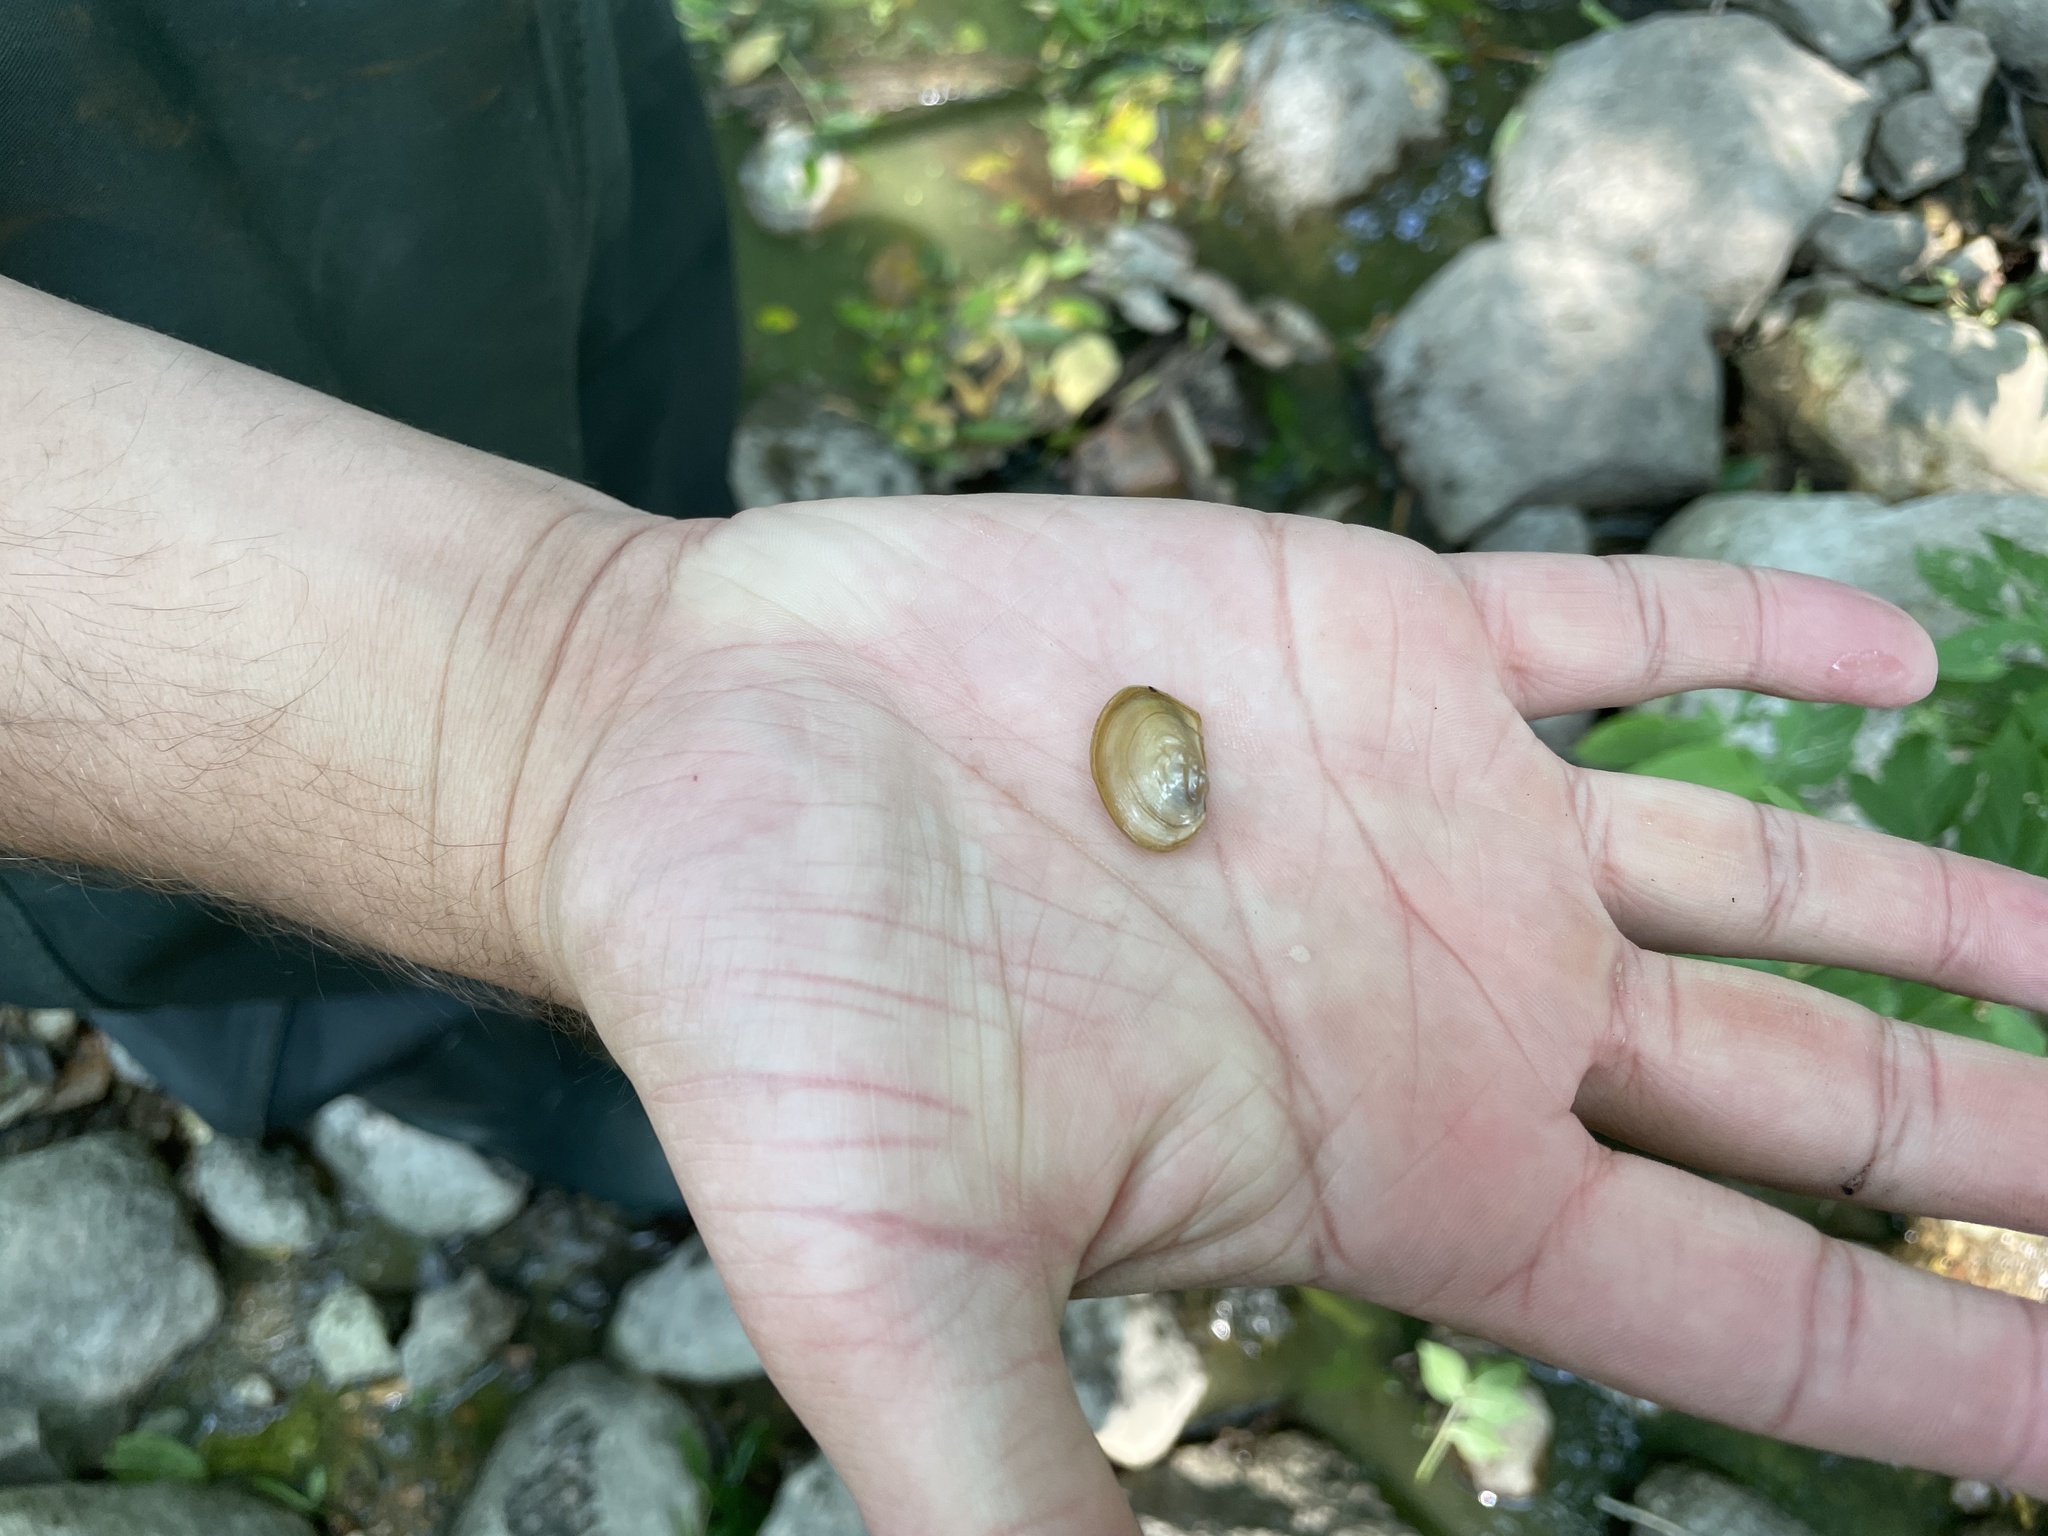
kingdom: Animalia
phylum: Mollusca
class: Bivalvia
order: Unionida
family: Unionidae
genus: Pyganodon
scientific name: Pyganodon grandis
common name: Giant floater
